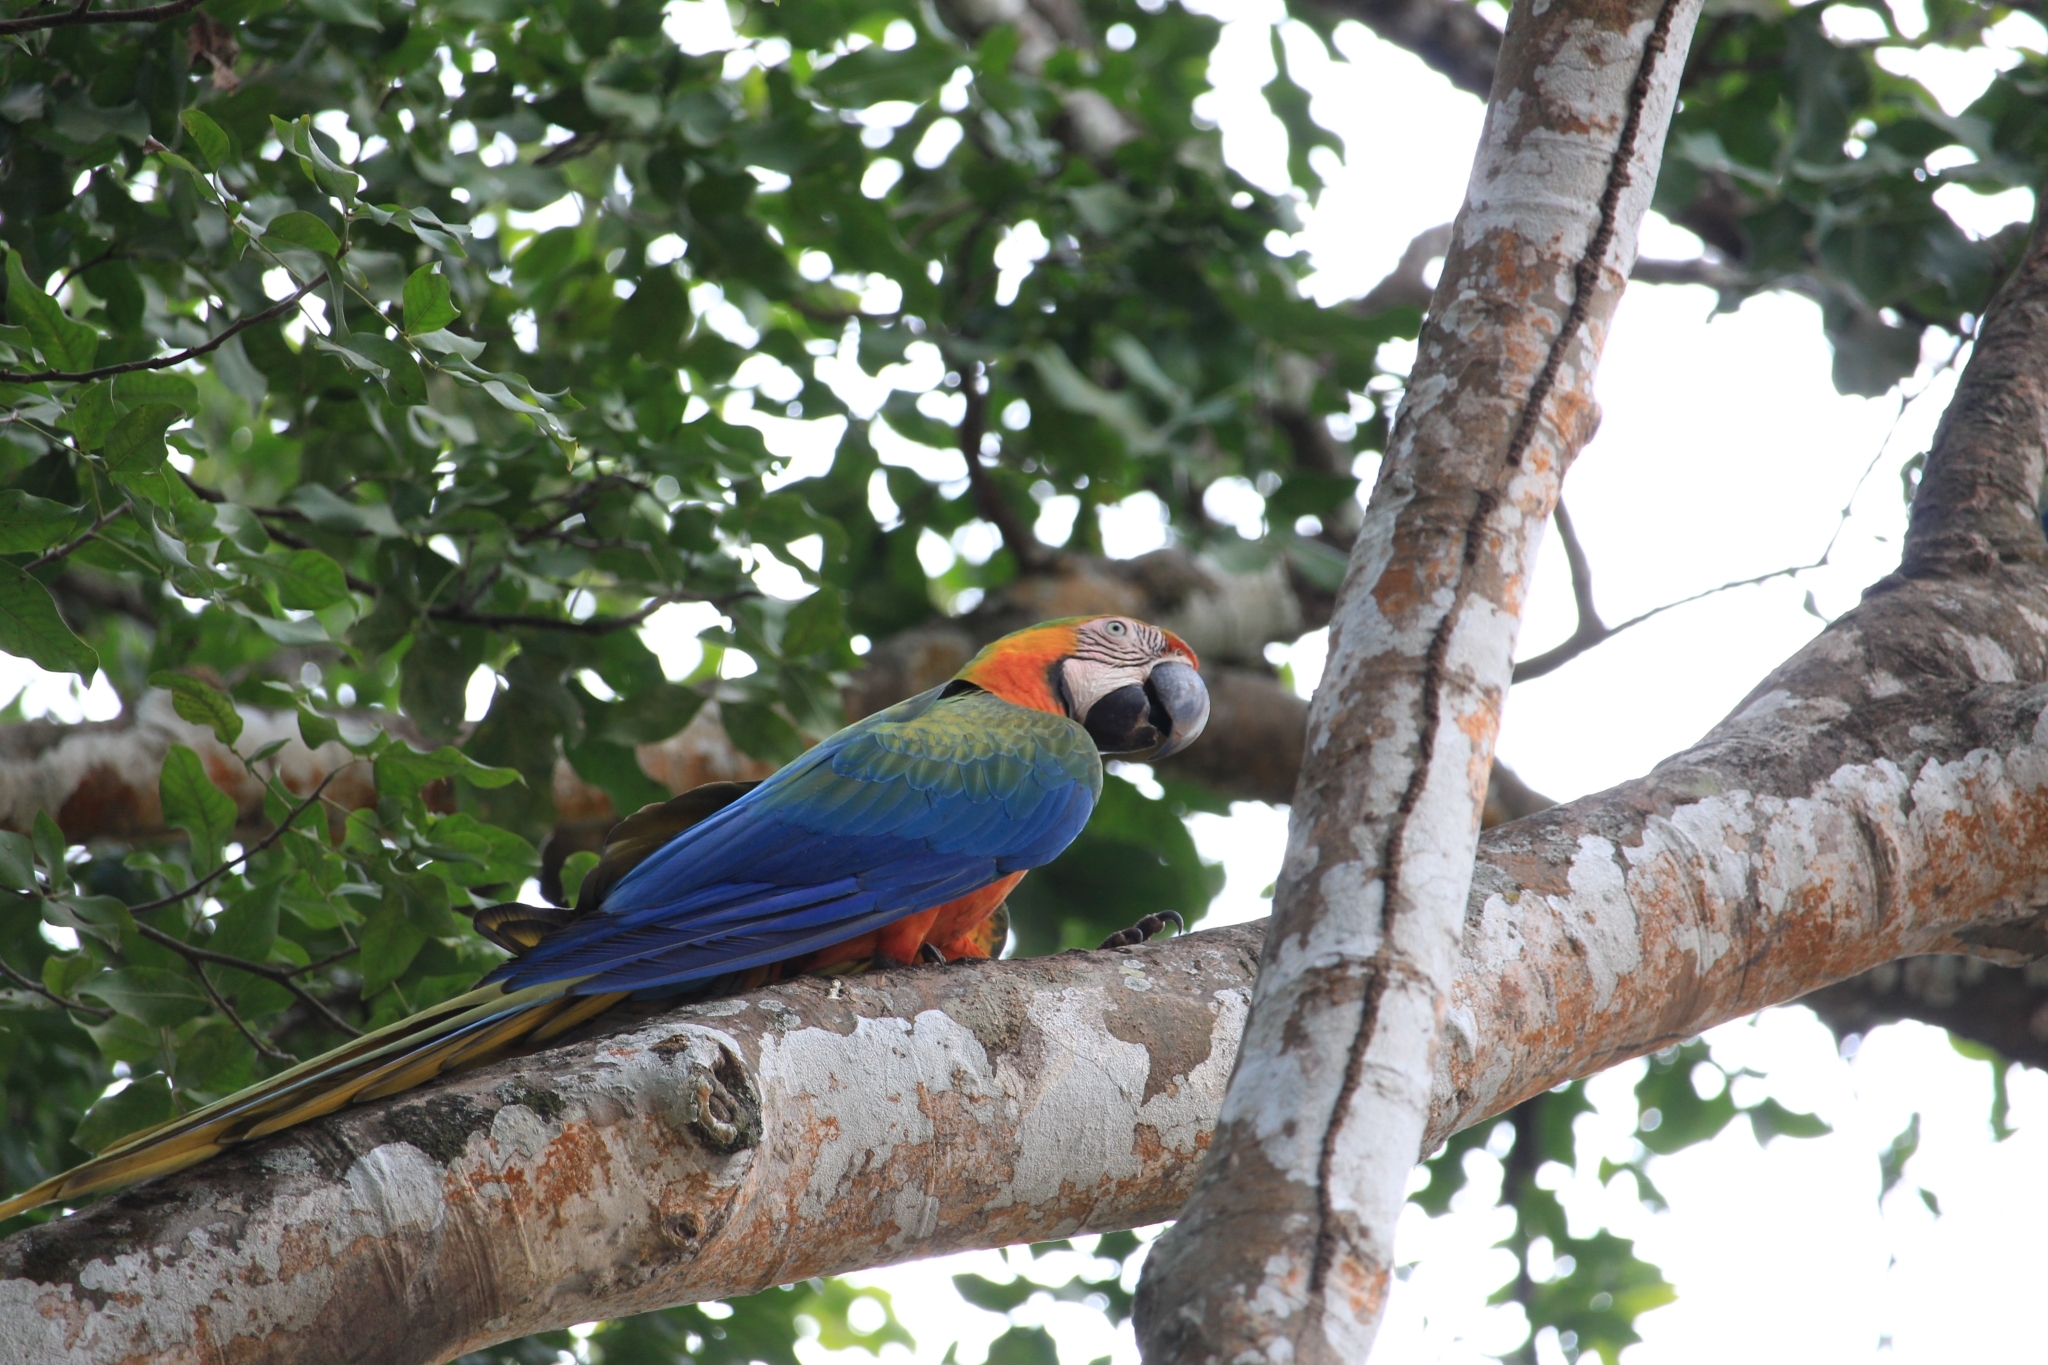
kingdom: Animalia
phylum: Chordata
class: Aves
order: Psittaciformes
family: Psittacidae
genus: Ara
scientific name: Ara
